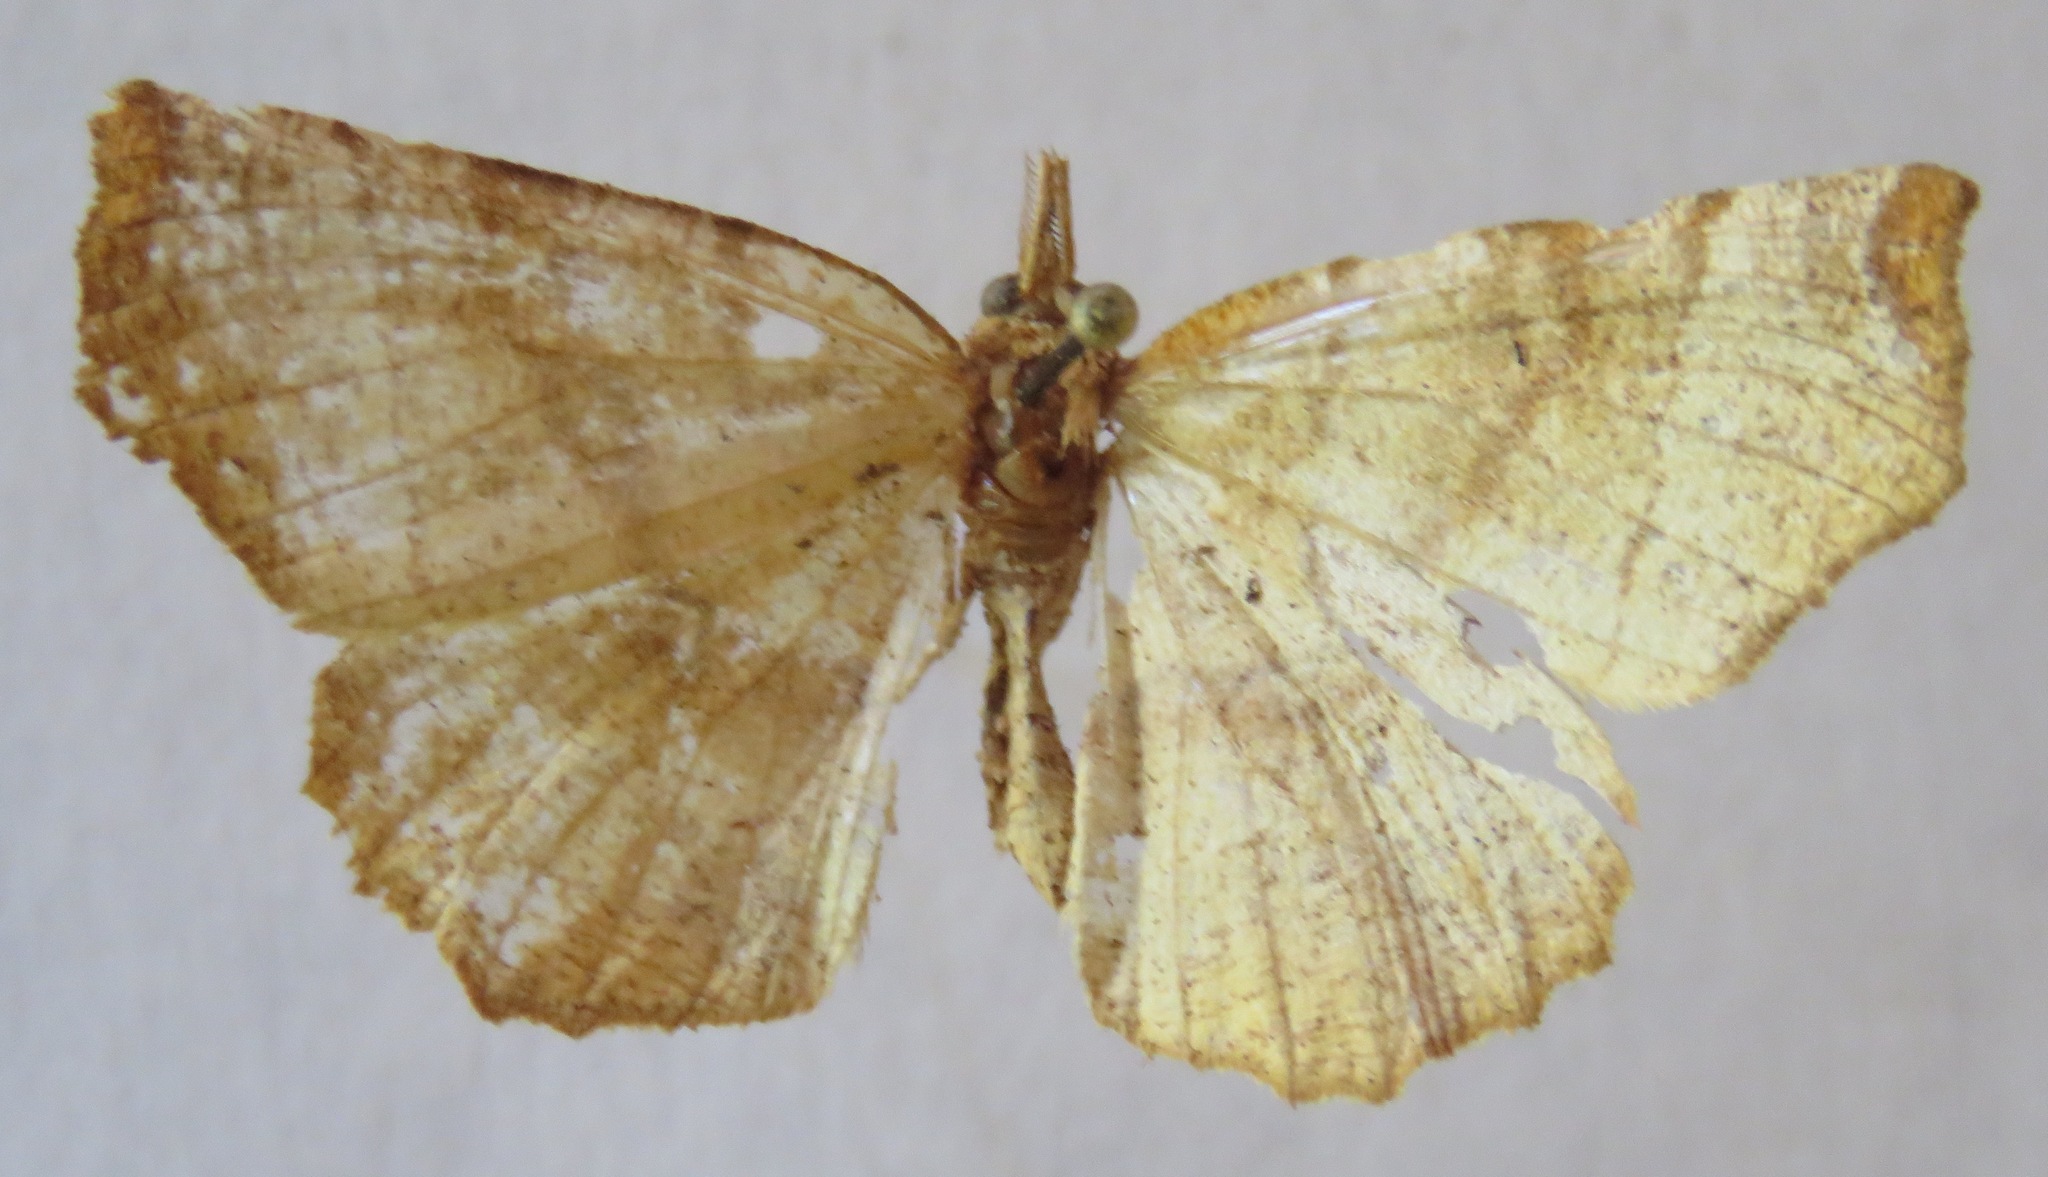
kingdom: Animalia
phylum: Arthropoda
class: Insecta
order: Lepidoptera
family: Geometridae
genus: Selenia
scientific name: Selenia dentaria
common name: Early thorn
